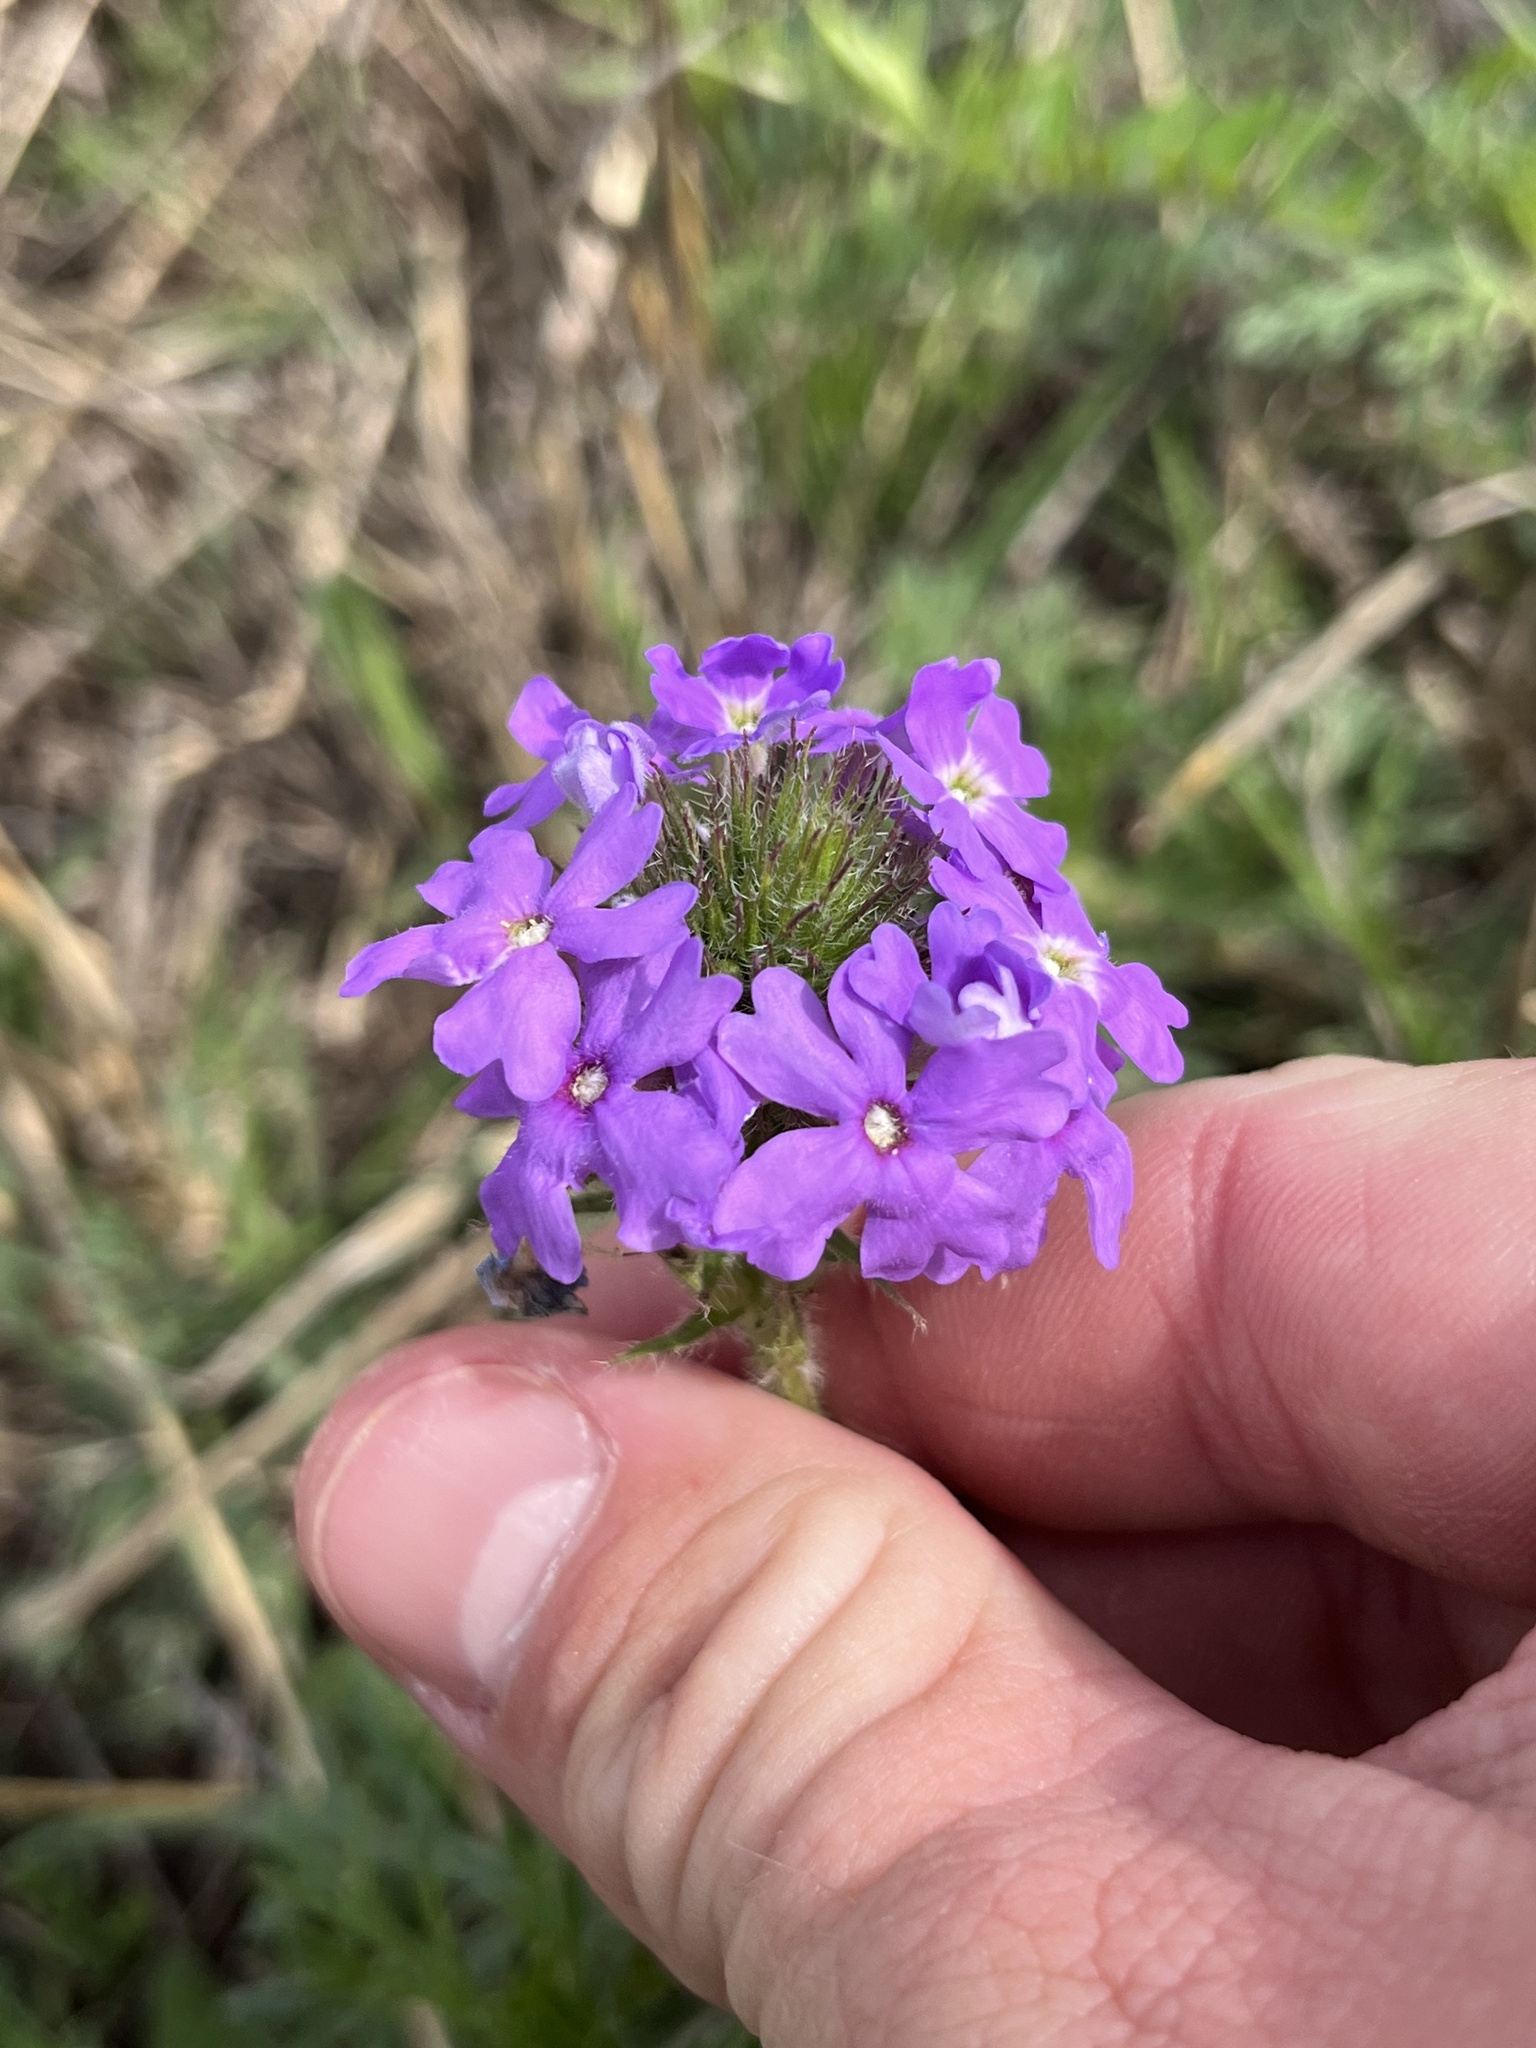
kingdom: Plantae
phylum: Tracheophyta
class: Magnoliopsida
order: Lamiales
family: Verbenaceae
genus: Verbena
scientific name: Verbena bipinnatifida
